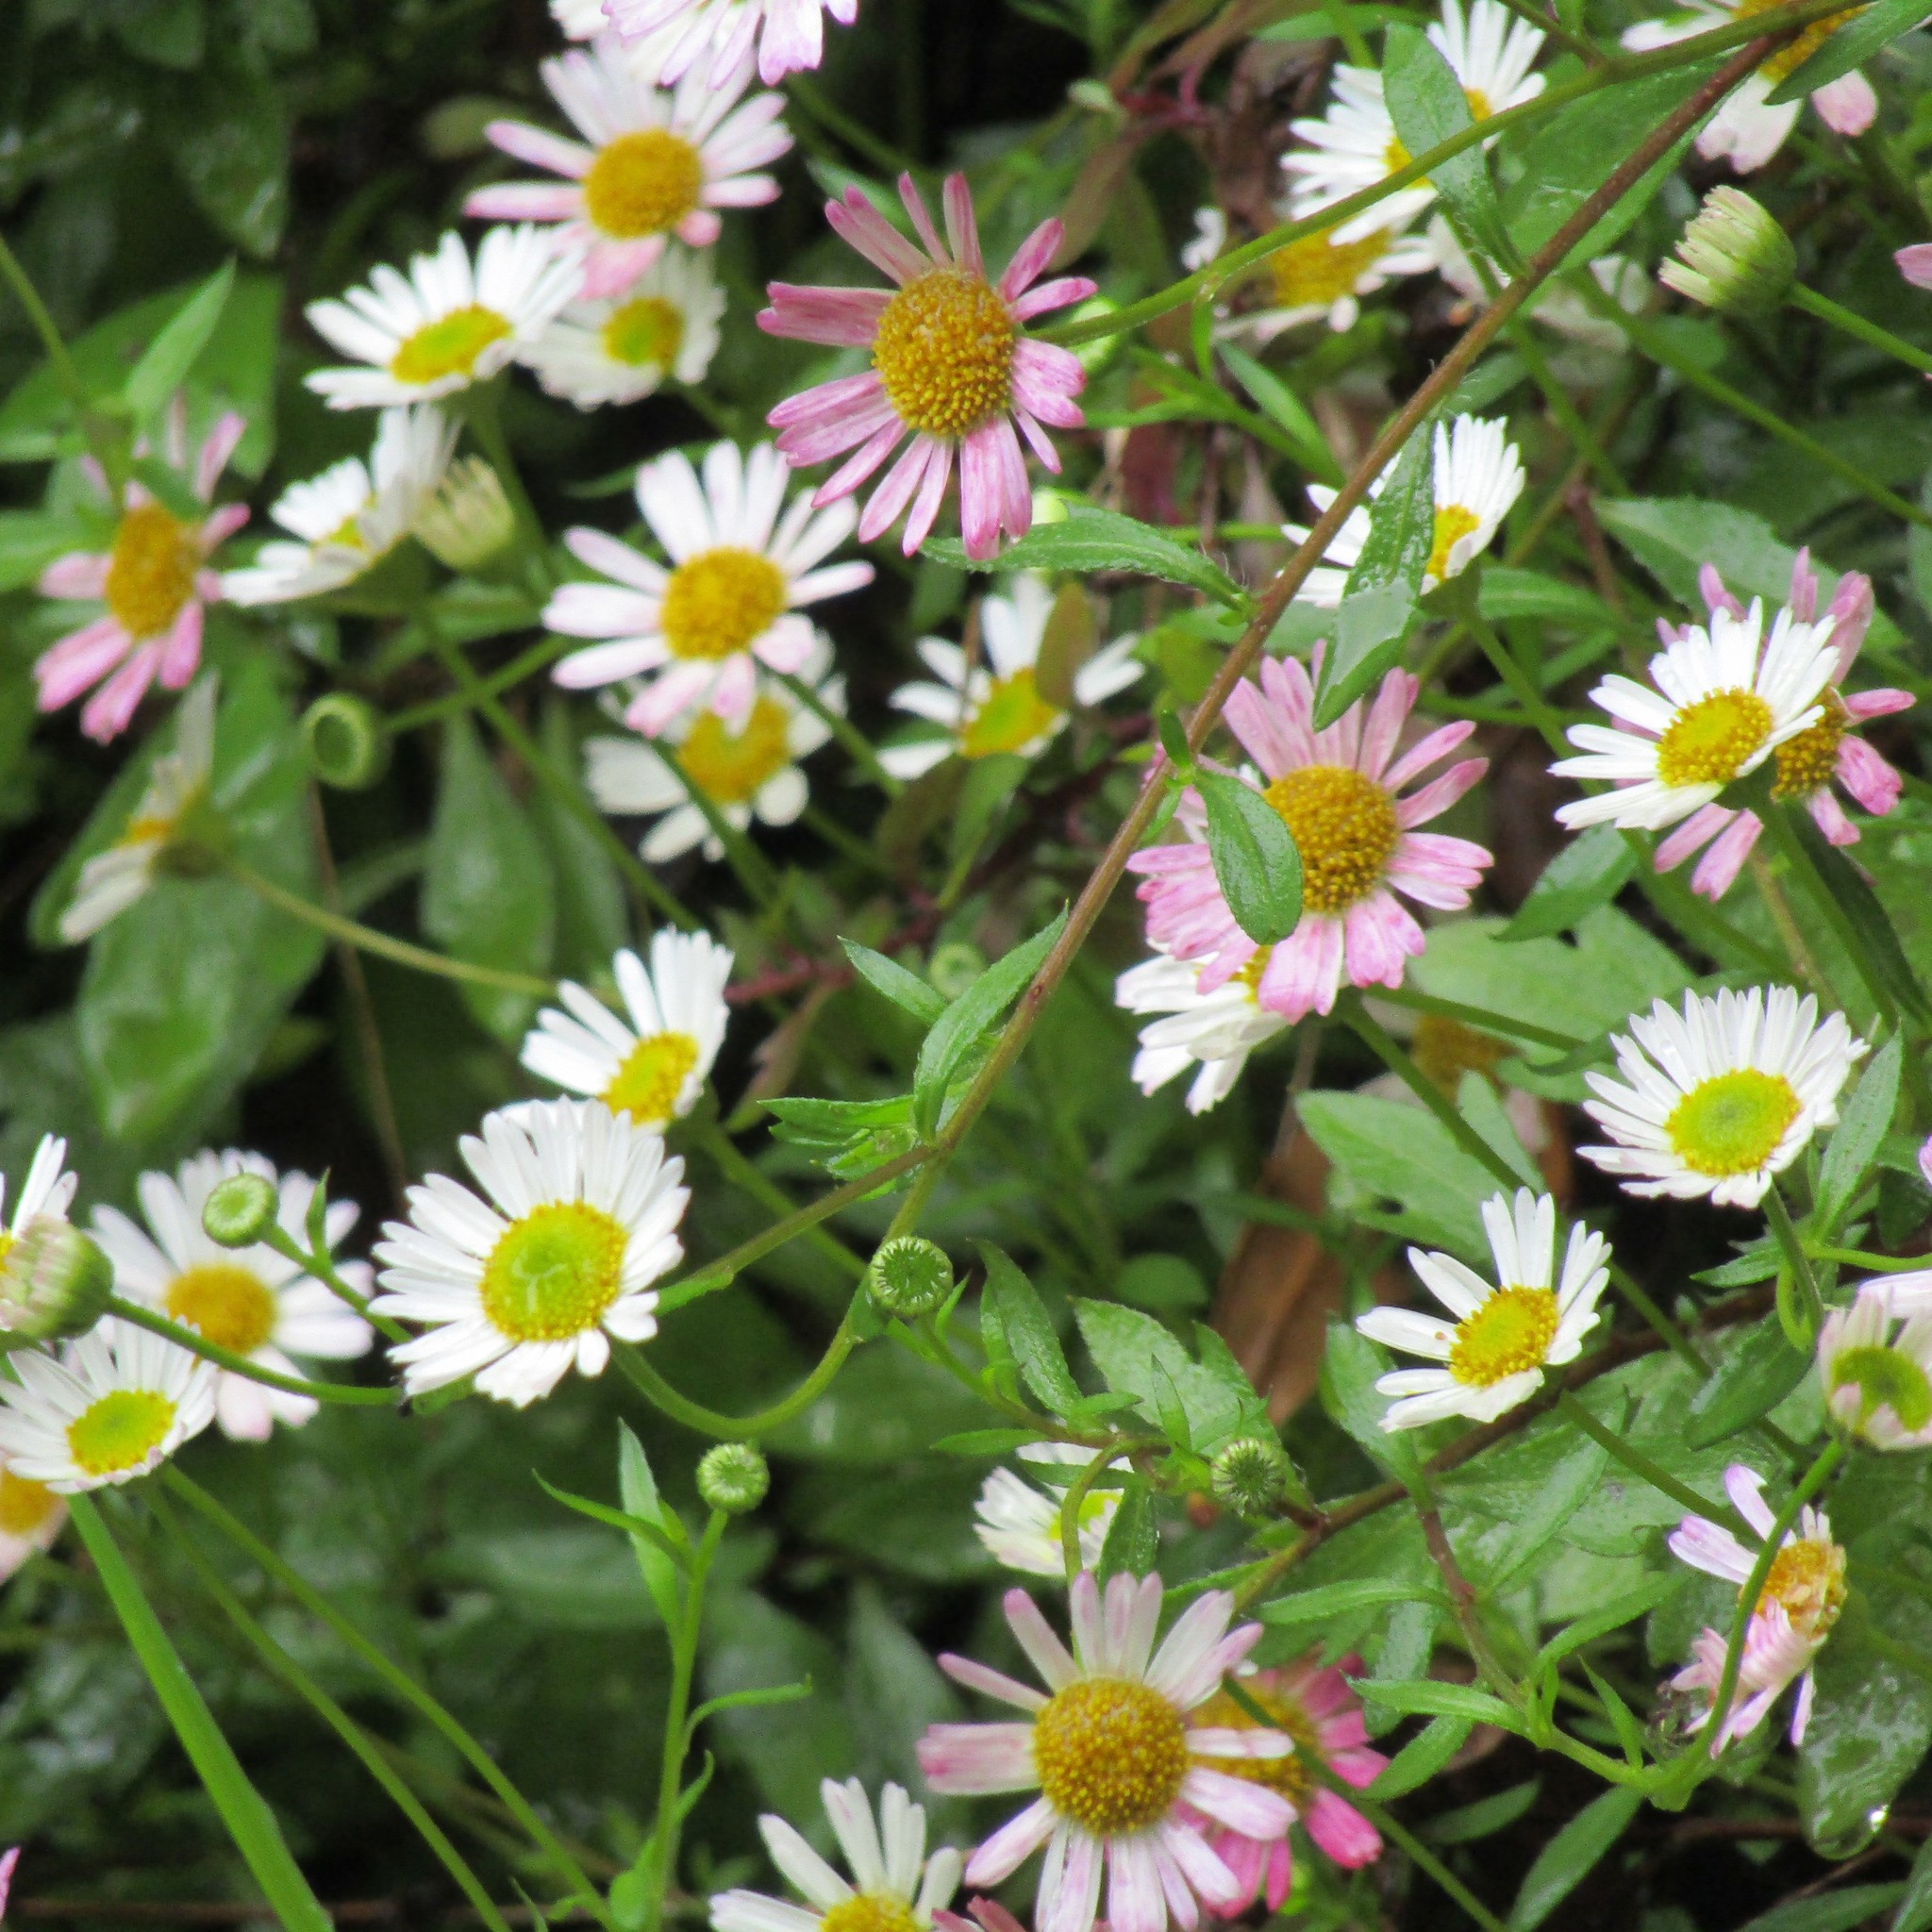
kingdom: Plantae
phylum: Tracheophyta
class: Magnoliopsida
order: Asterales
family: Asteraceae
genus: Erigeron
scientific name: Erigeron karvinskianus
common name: Mexican fleabane
